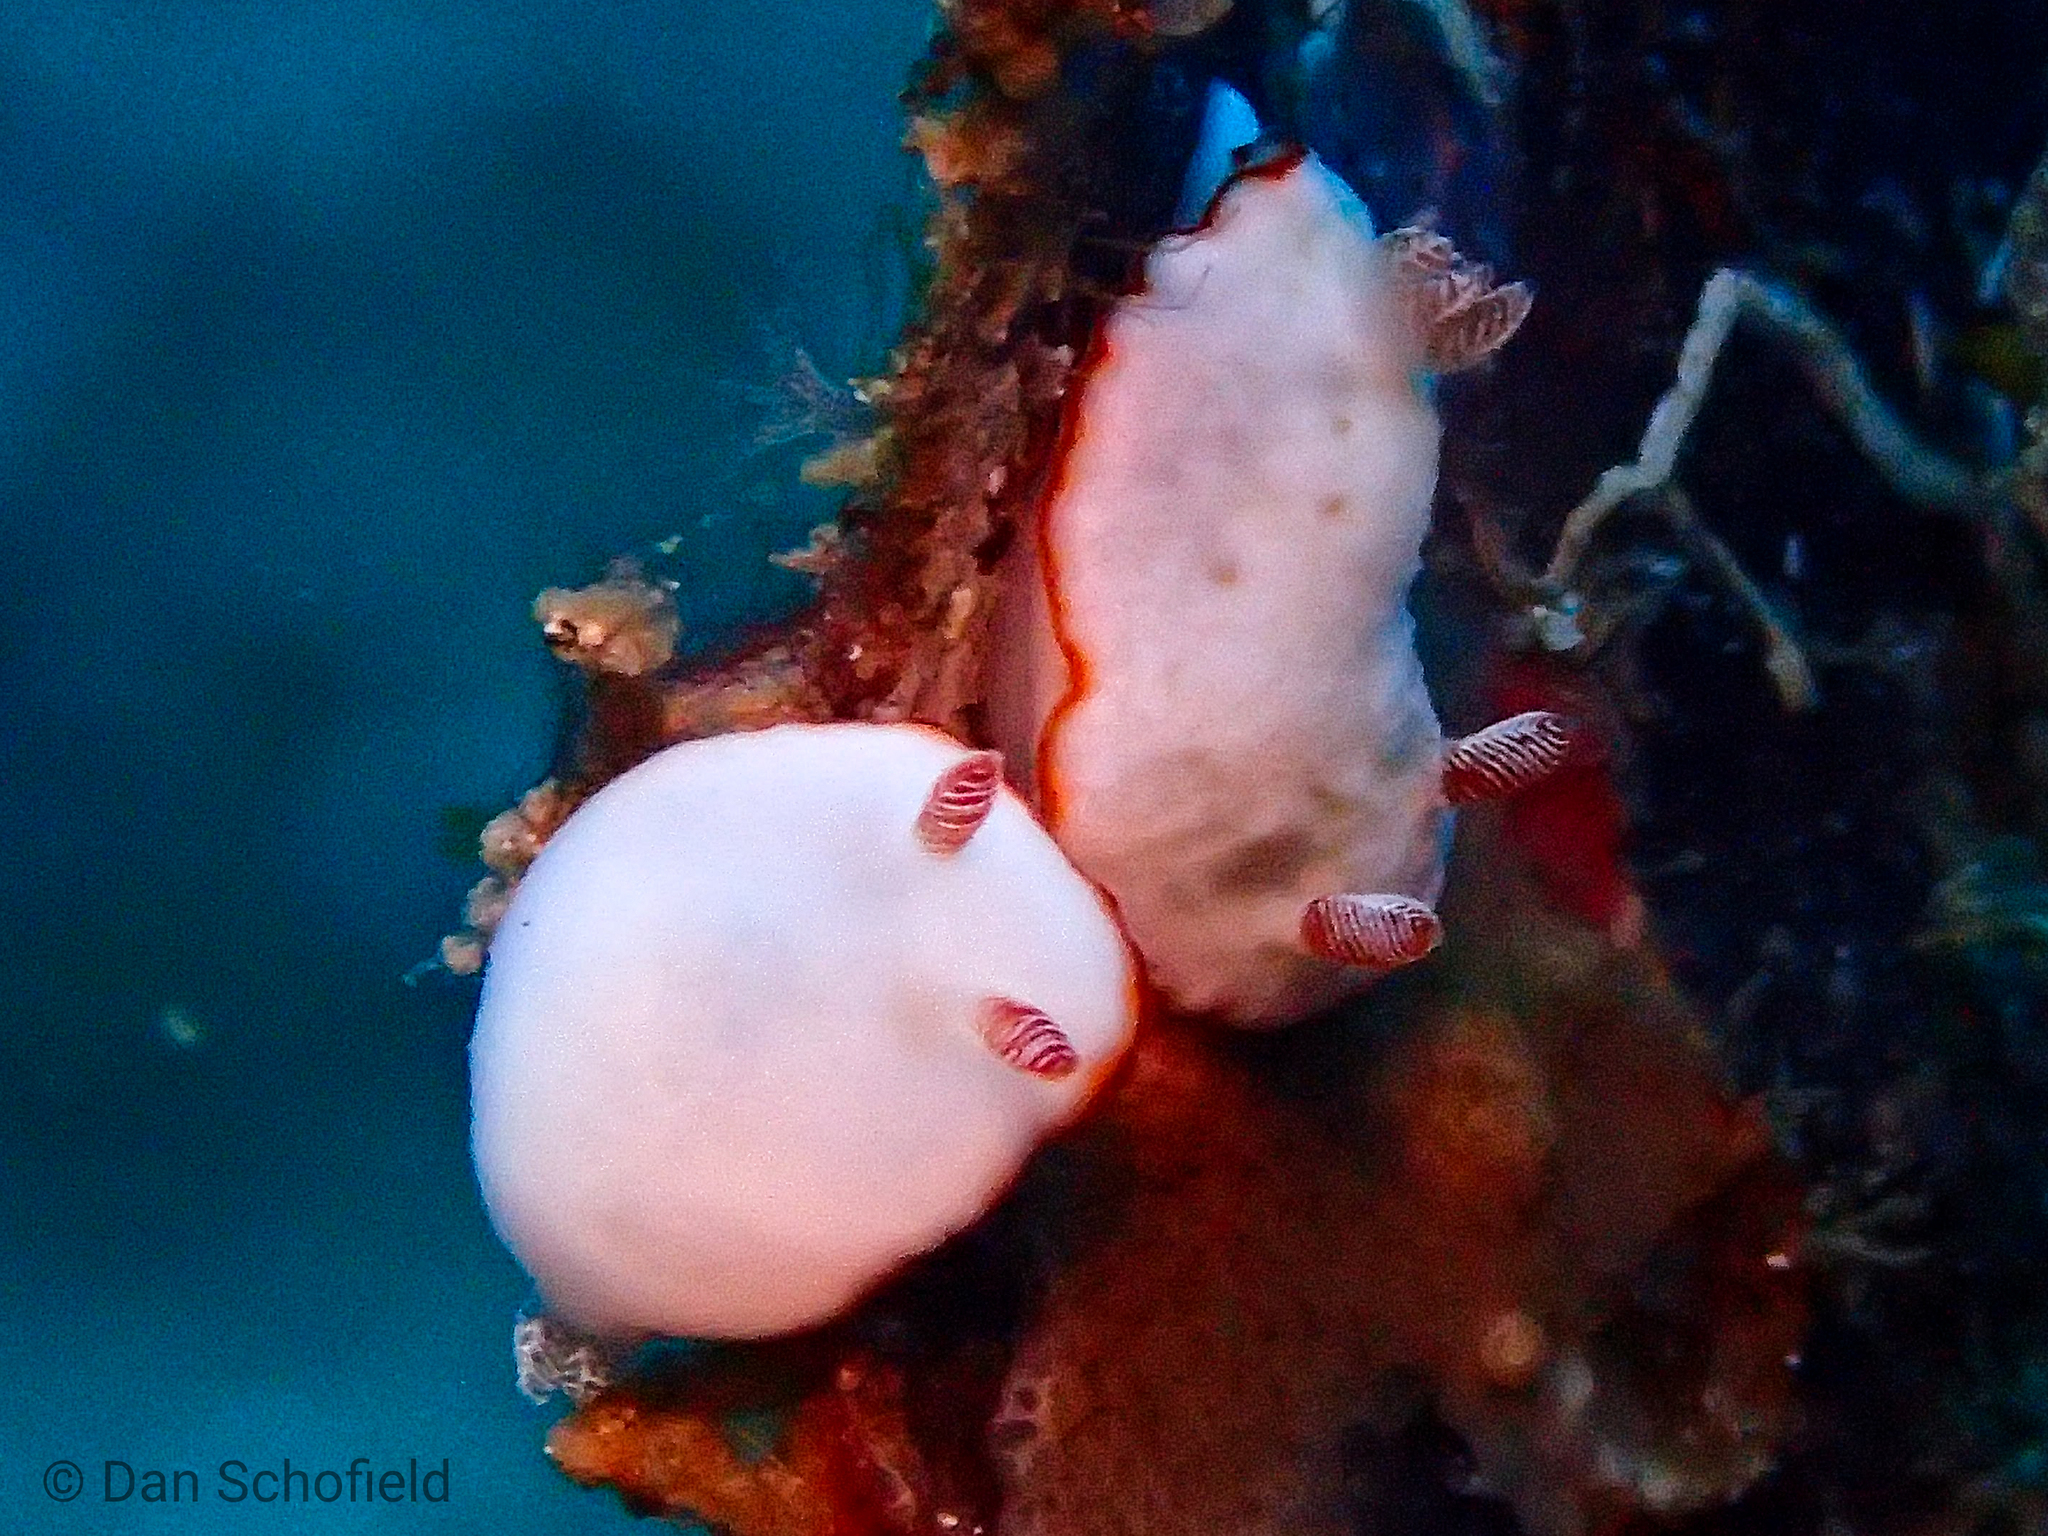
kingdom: Animalia
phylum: Mollusca
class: Gastropoda
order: Nudibranchia
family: Chromodorididae
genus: Goniobranchus
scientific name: Goniobranchus verrieri
